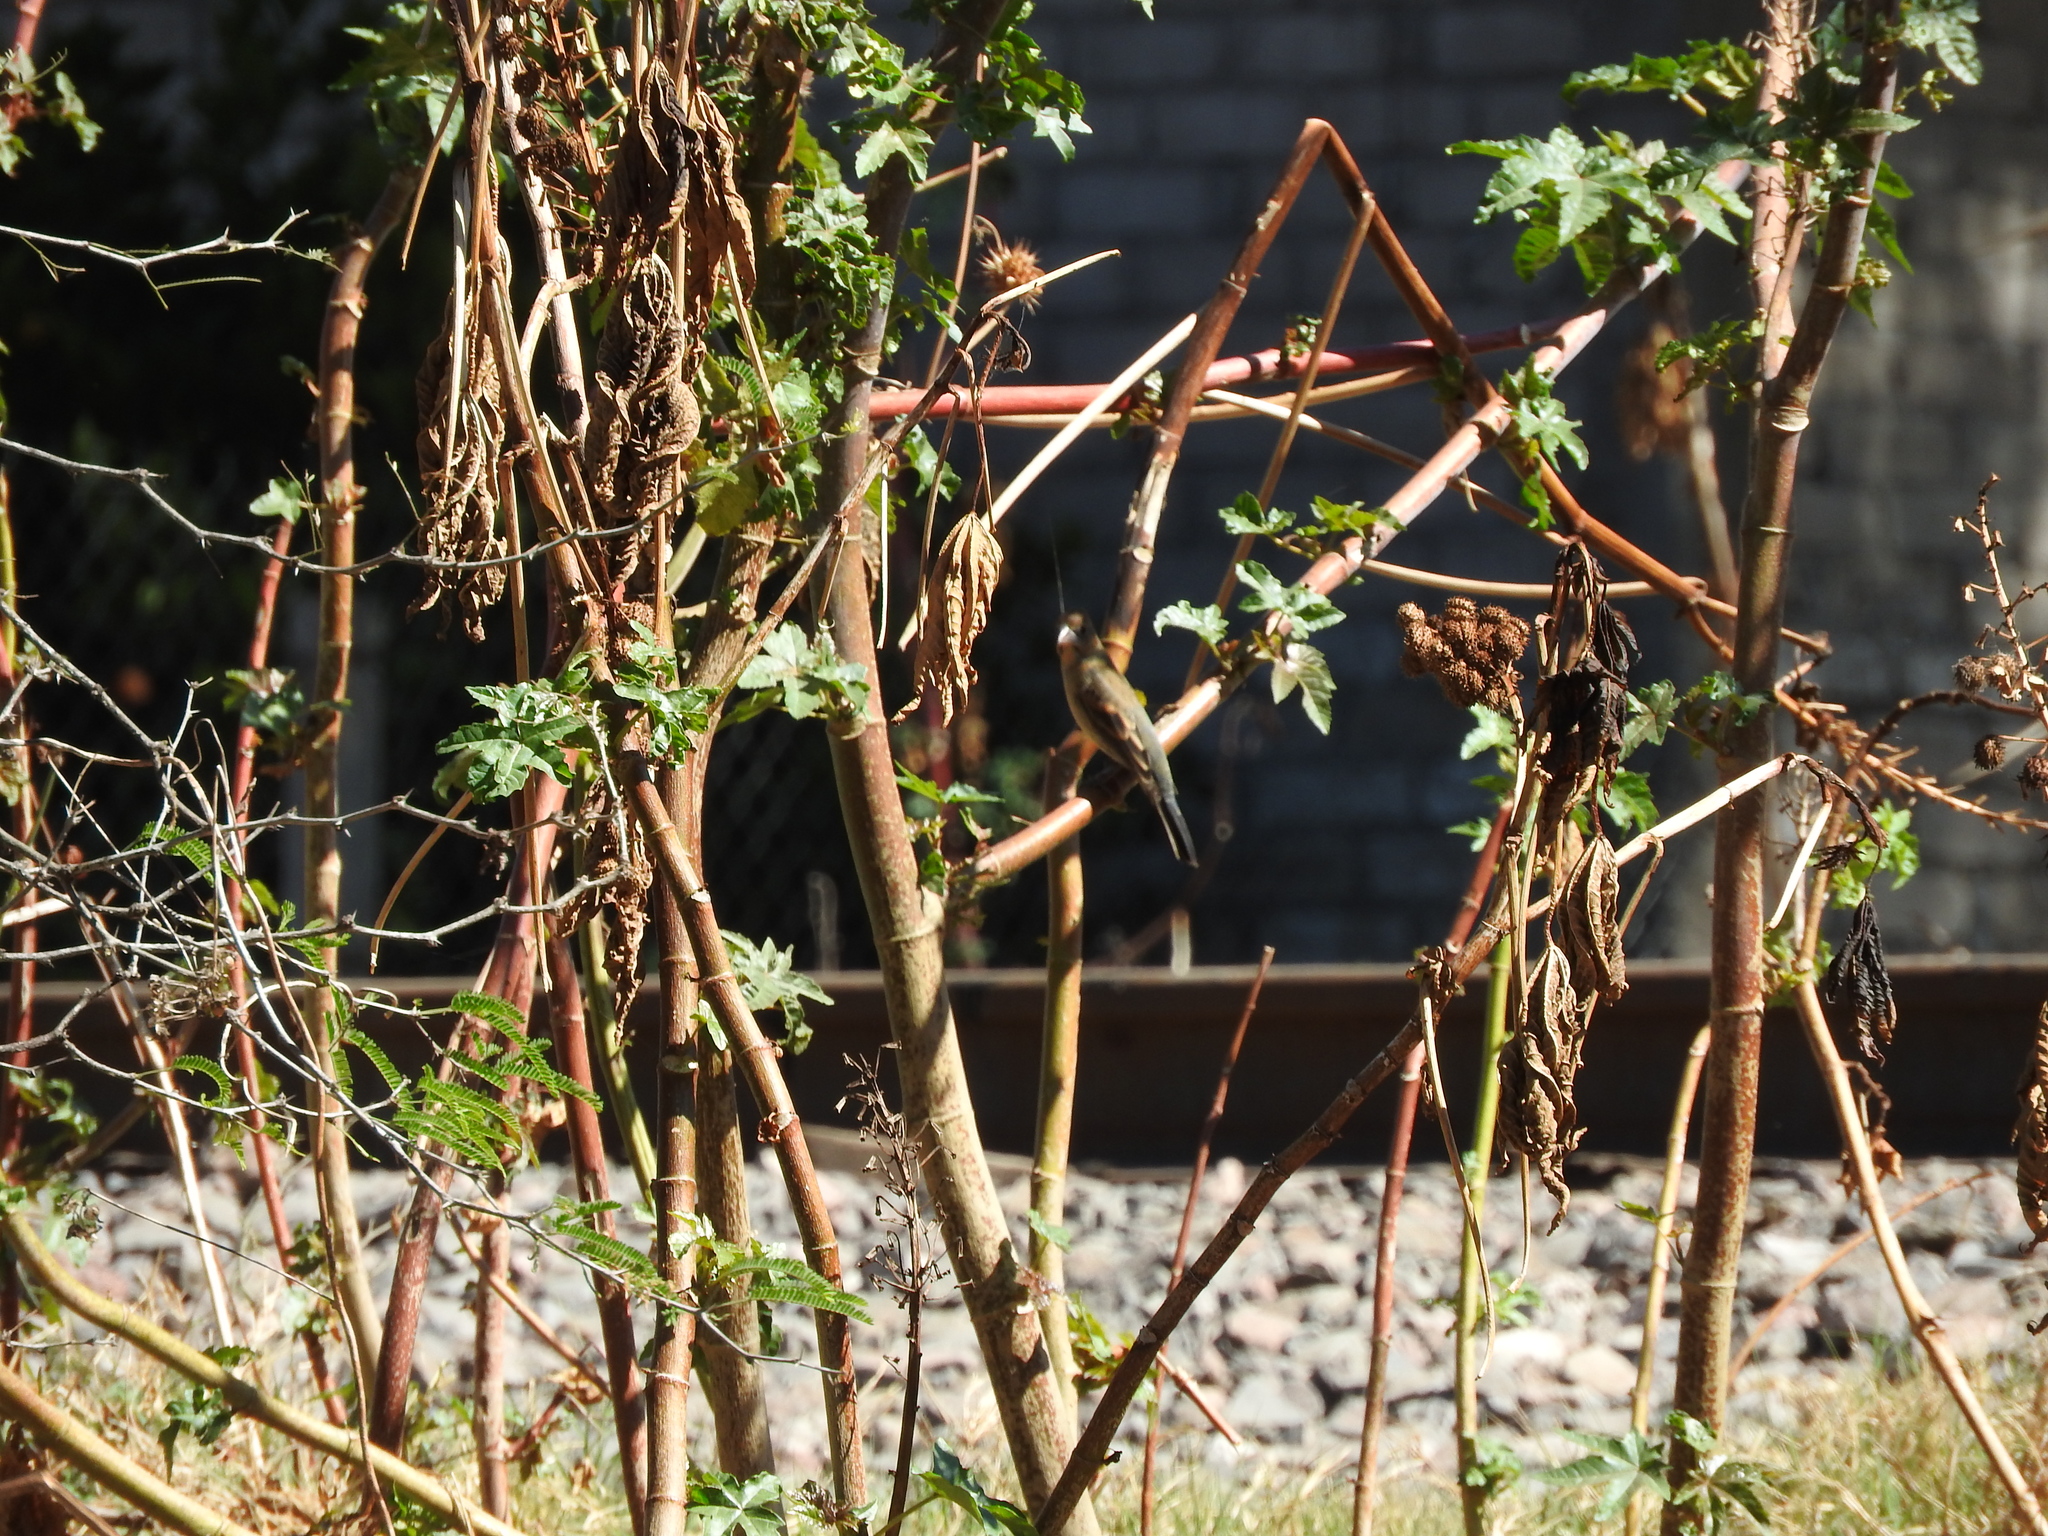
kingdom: Animalia
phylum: Chordata
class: Aves
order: Passeriformes
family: Cardinalidae
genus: Passerina
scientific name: Passerina caerulea
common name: Blue grosbeak
